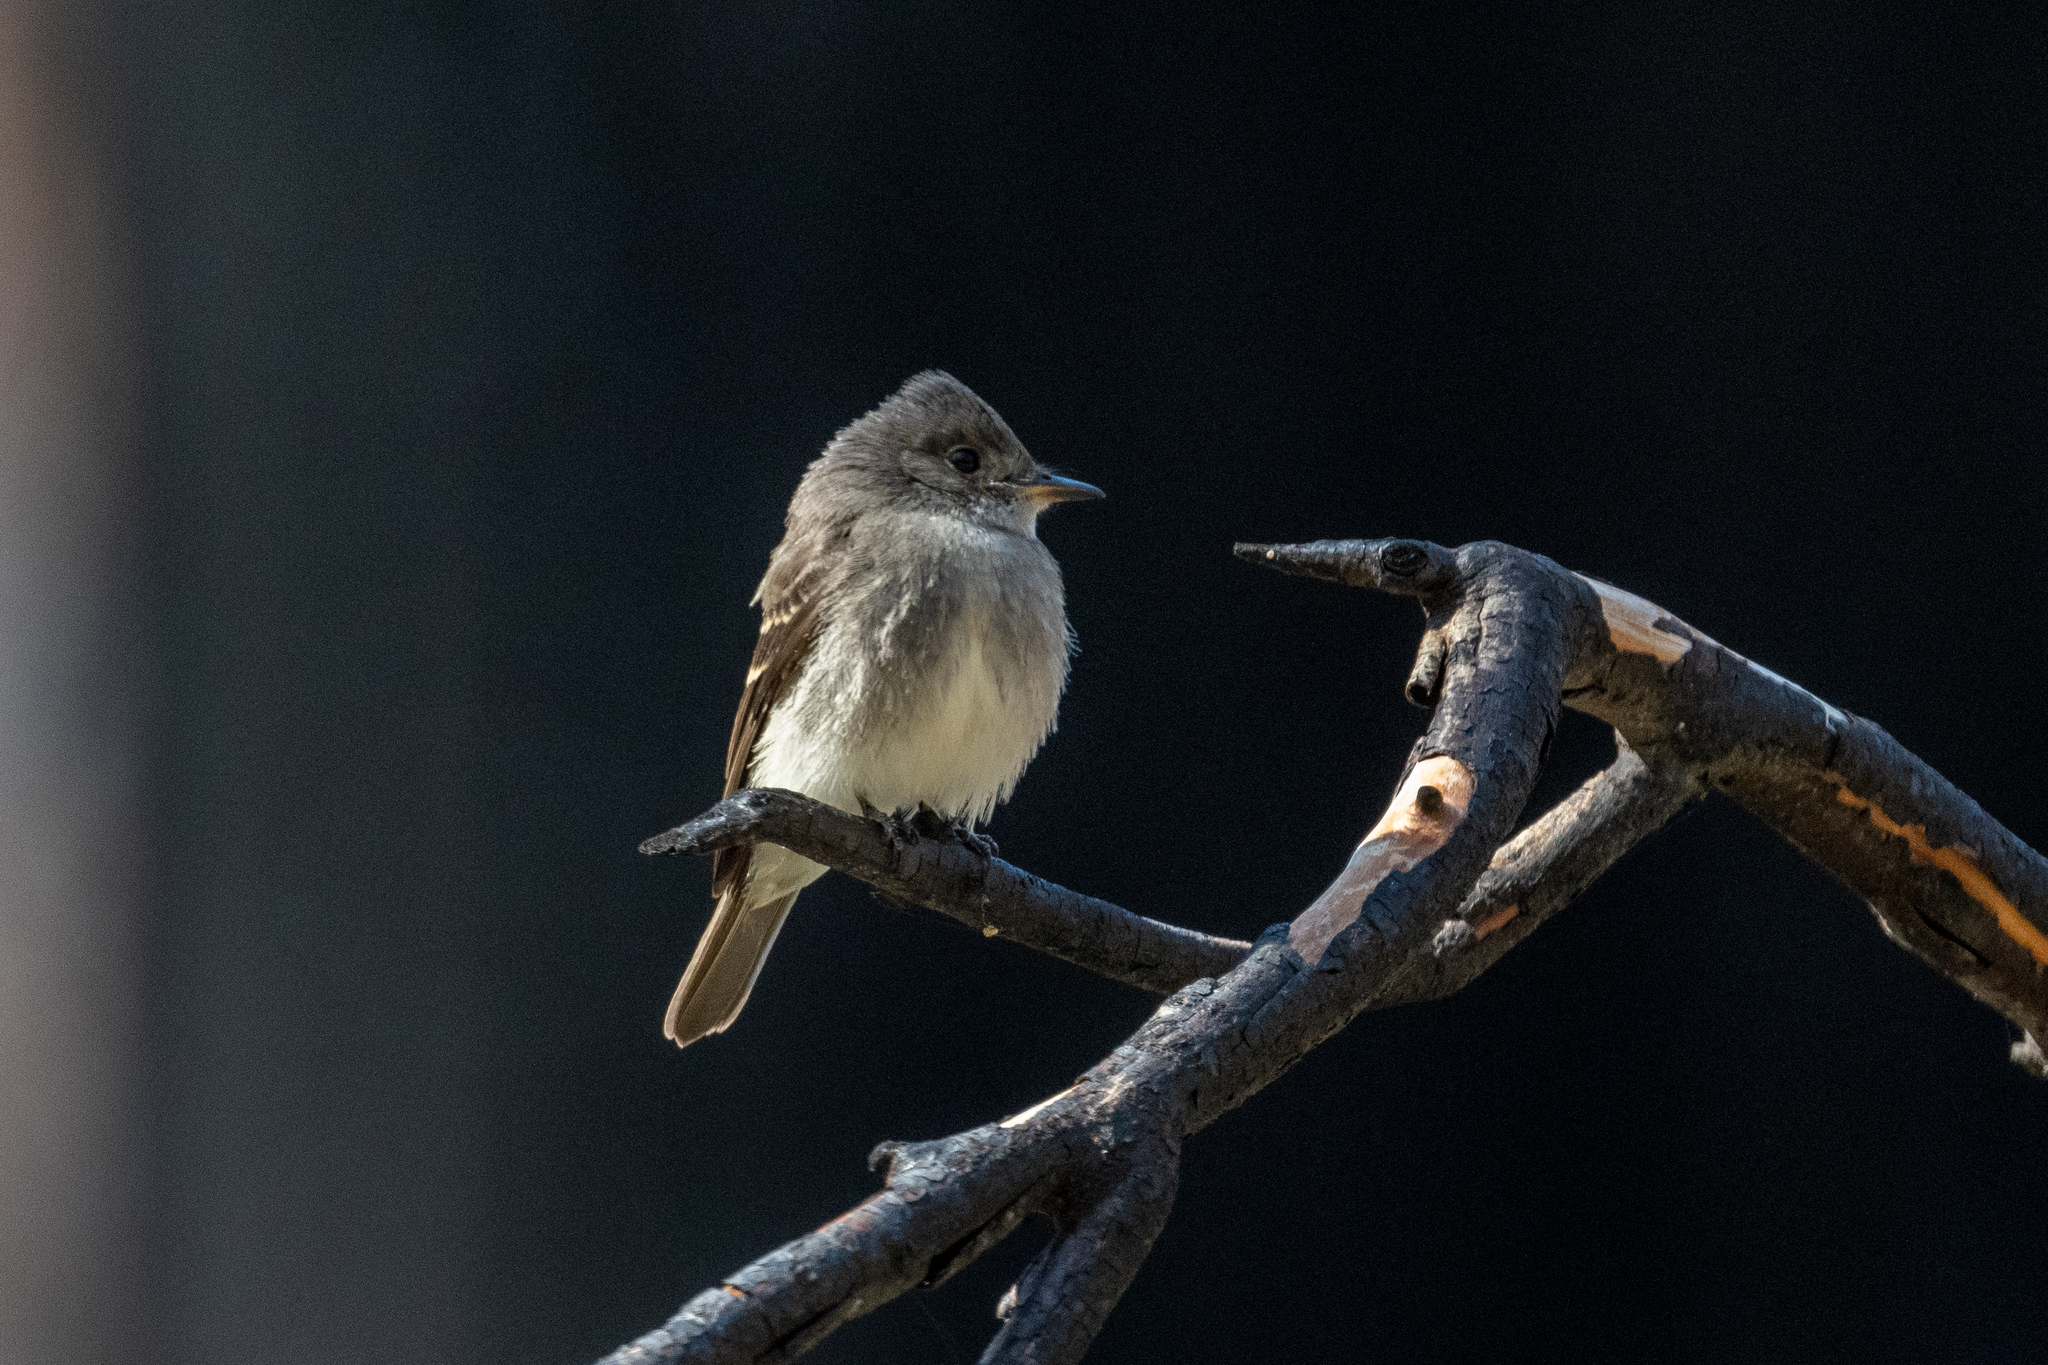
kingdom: Animalia
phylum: Chordata
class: Aves
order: Passeriformes
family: Tyrannidae
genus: Contopus
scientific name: Contopus sordidulus
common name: Western wood-pewee
